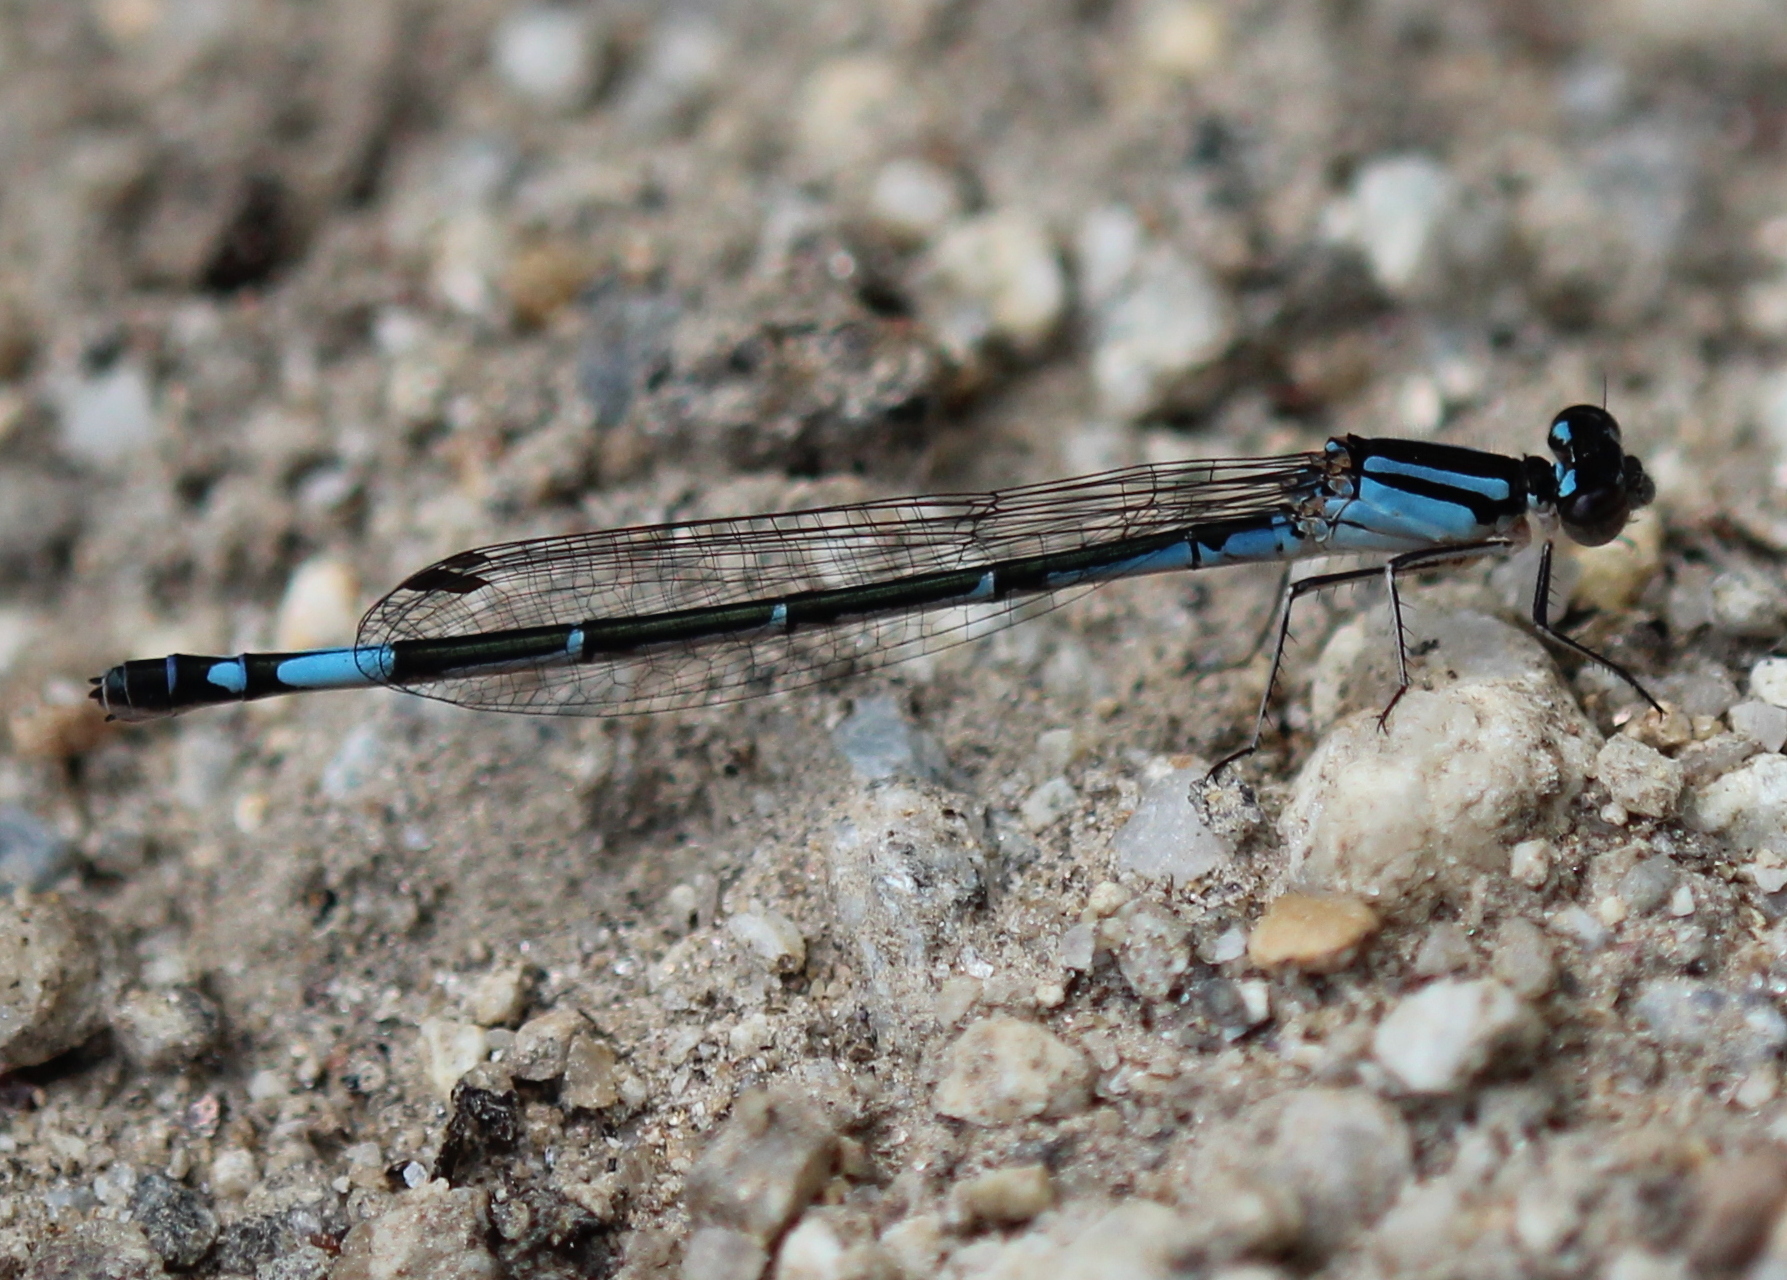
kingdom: Animalia
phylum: Arthropoda
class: Insecta
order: Odonata
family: Coenagrionidae
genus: Enallagma
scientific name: Enallagma aspersum
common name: Azure bluet
